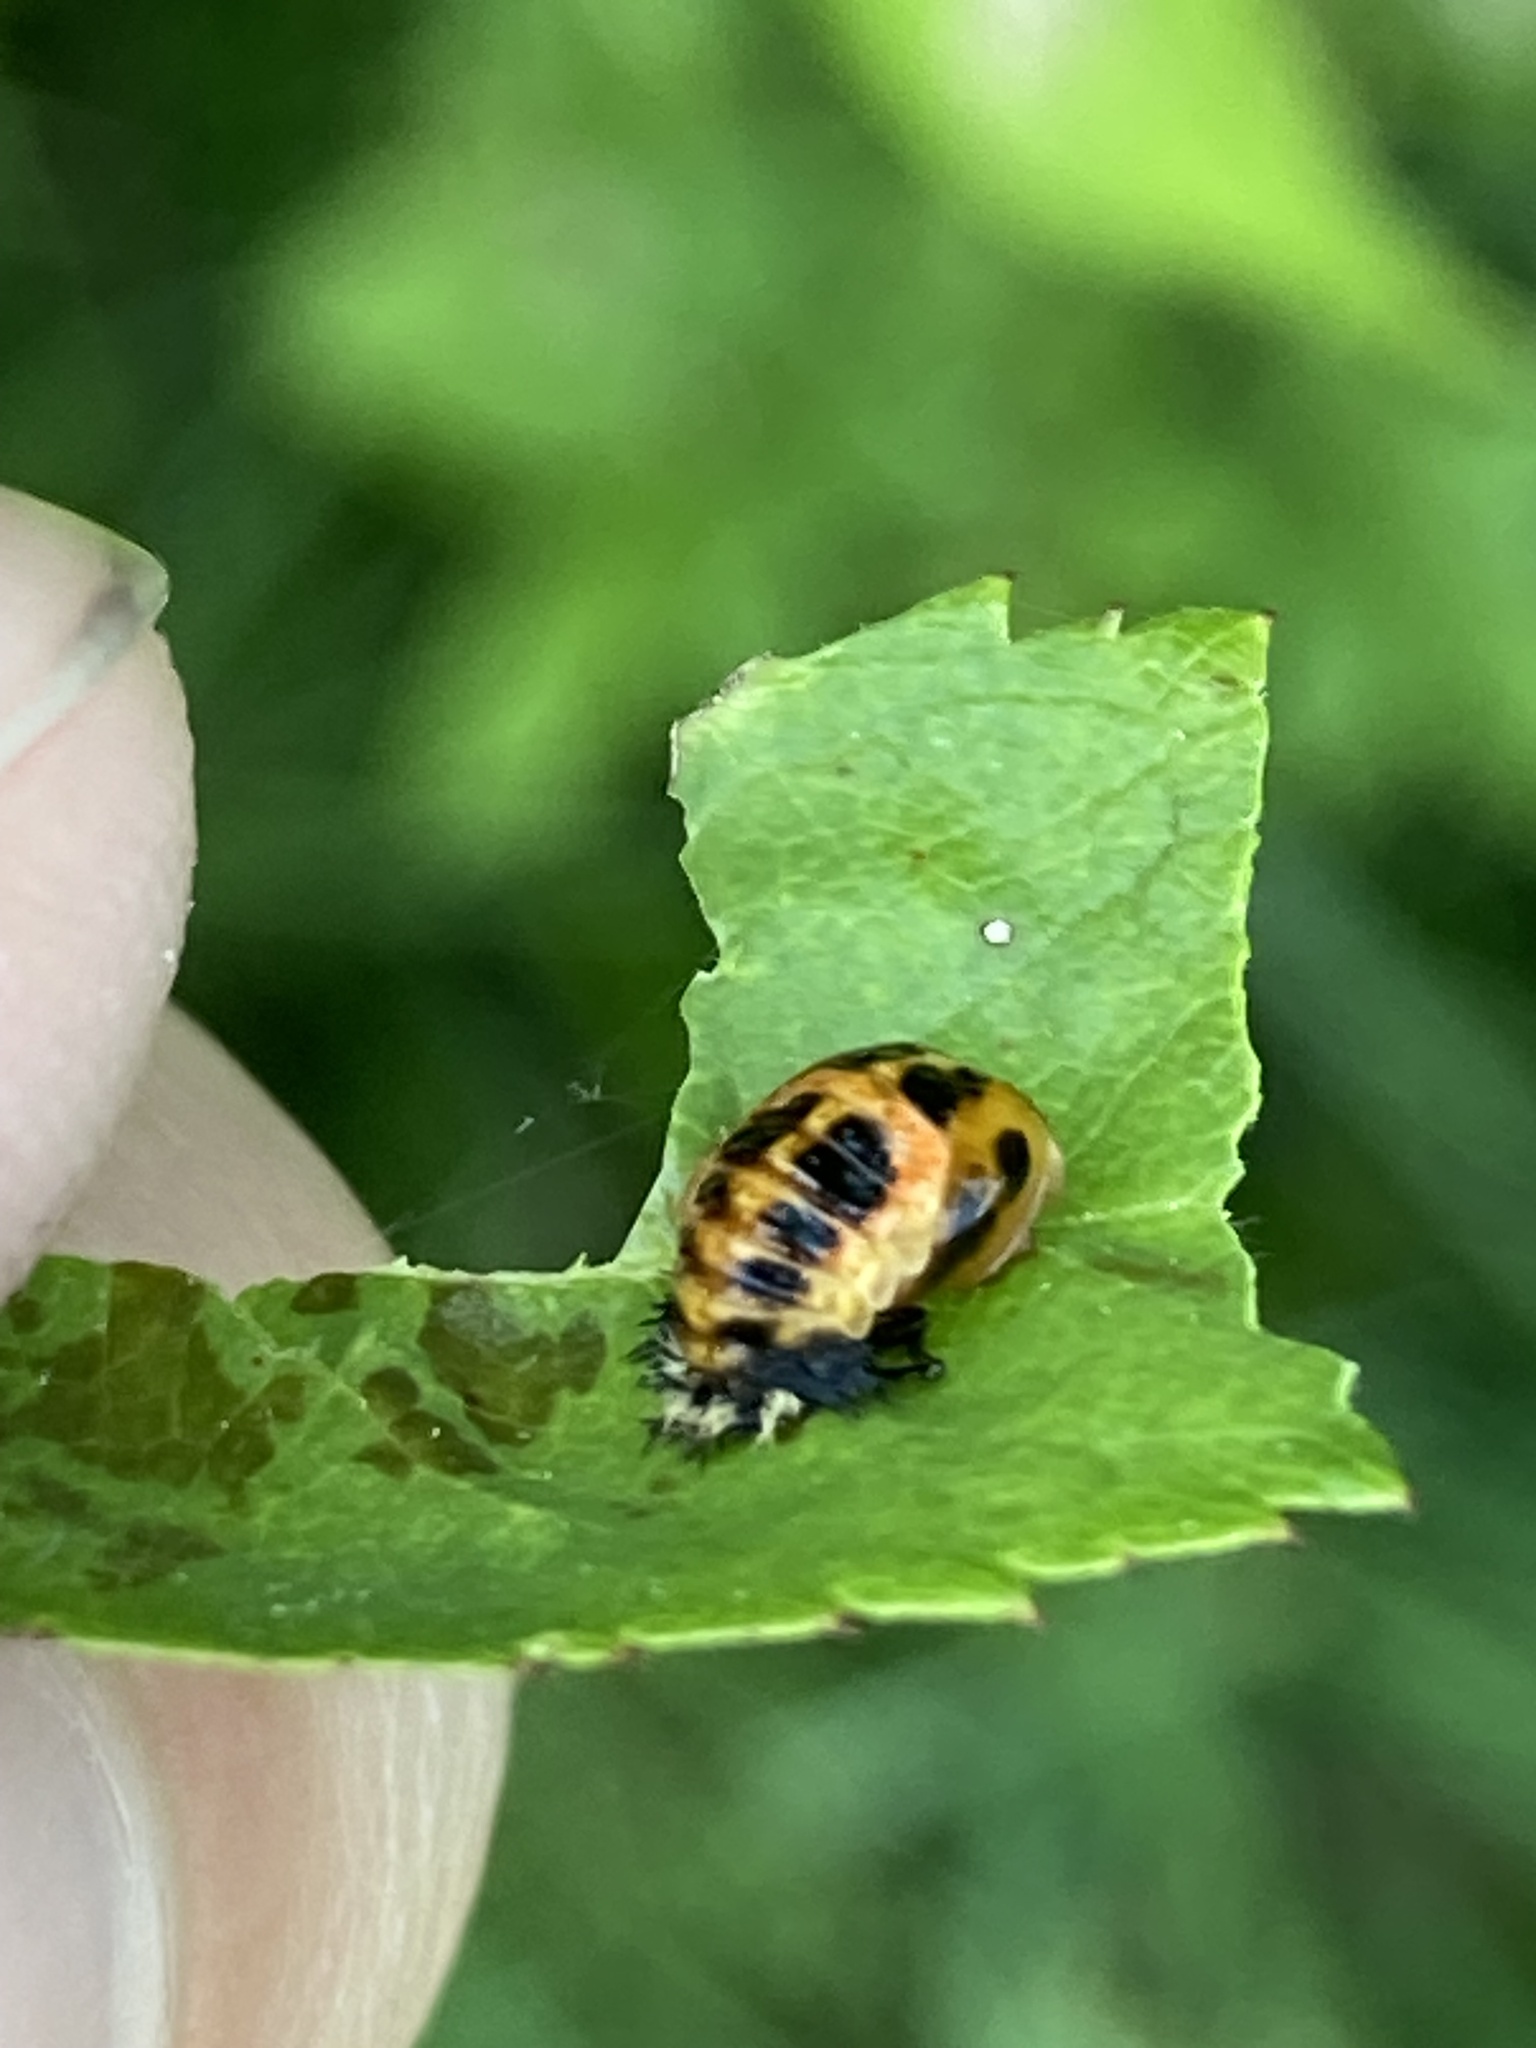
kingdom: Animalia
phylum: Arthropoda
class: Insecta
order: Coleoptera
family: Coccinellidae
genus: Harmonia
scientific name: Harmonia axyridis
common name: Harlequin ladybird
